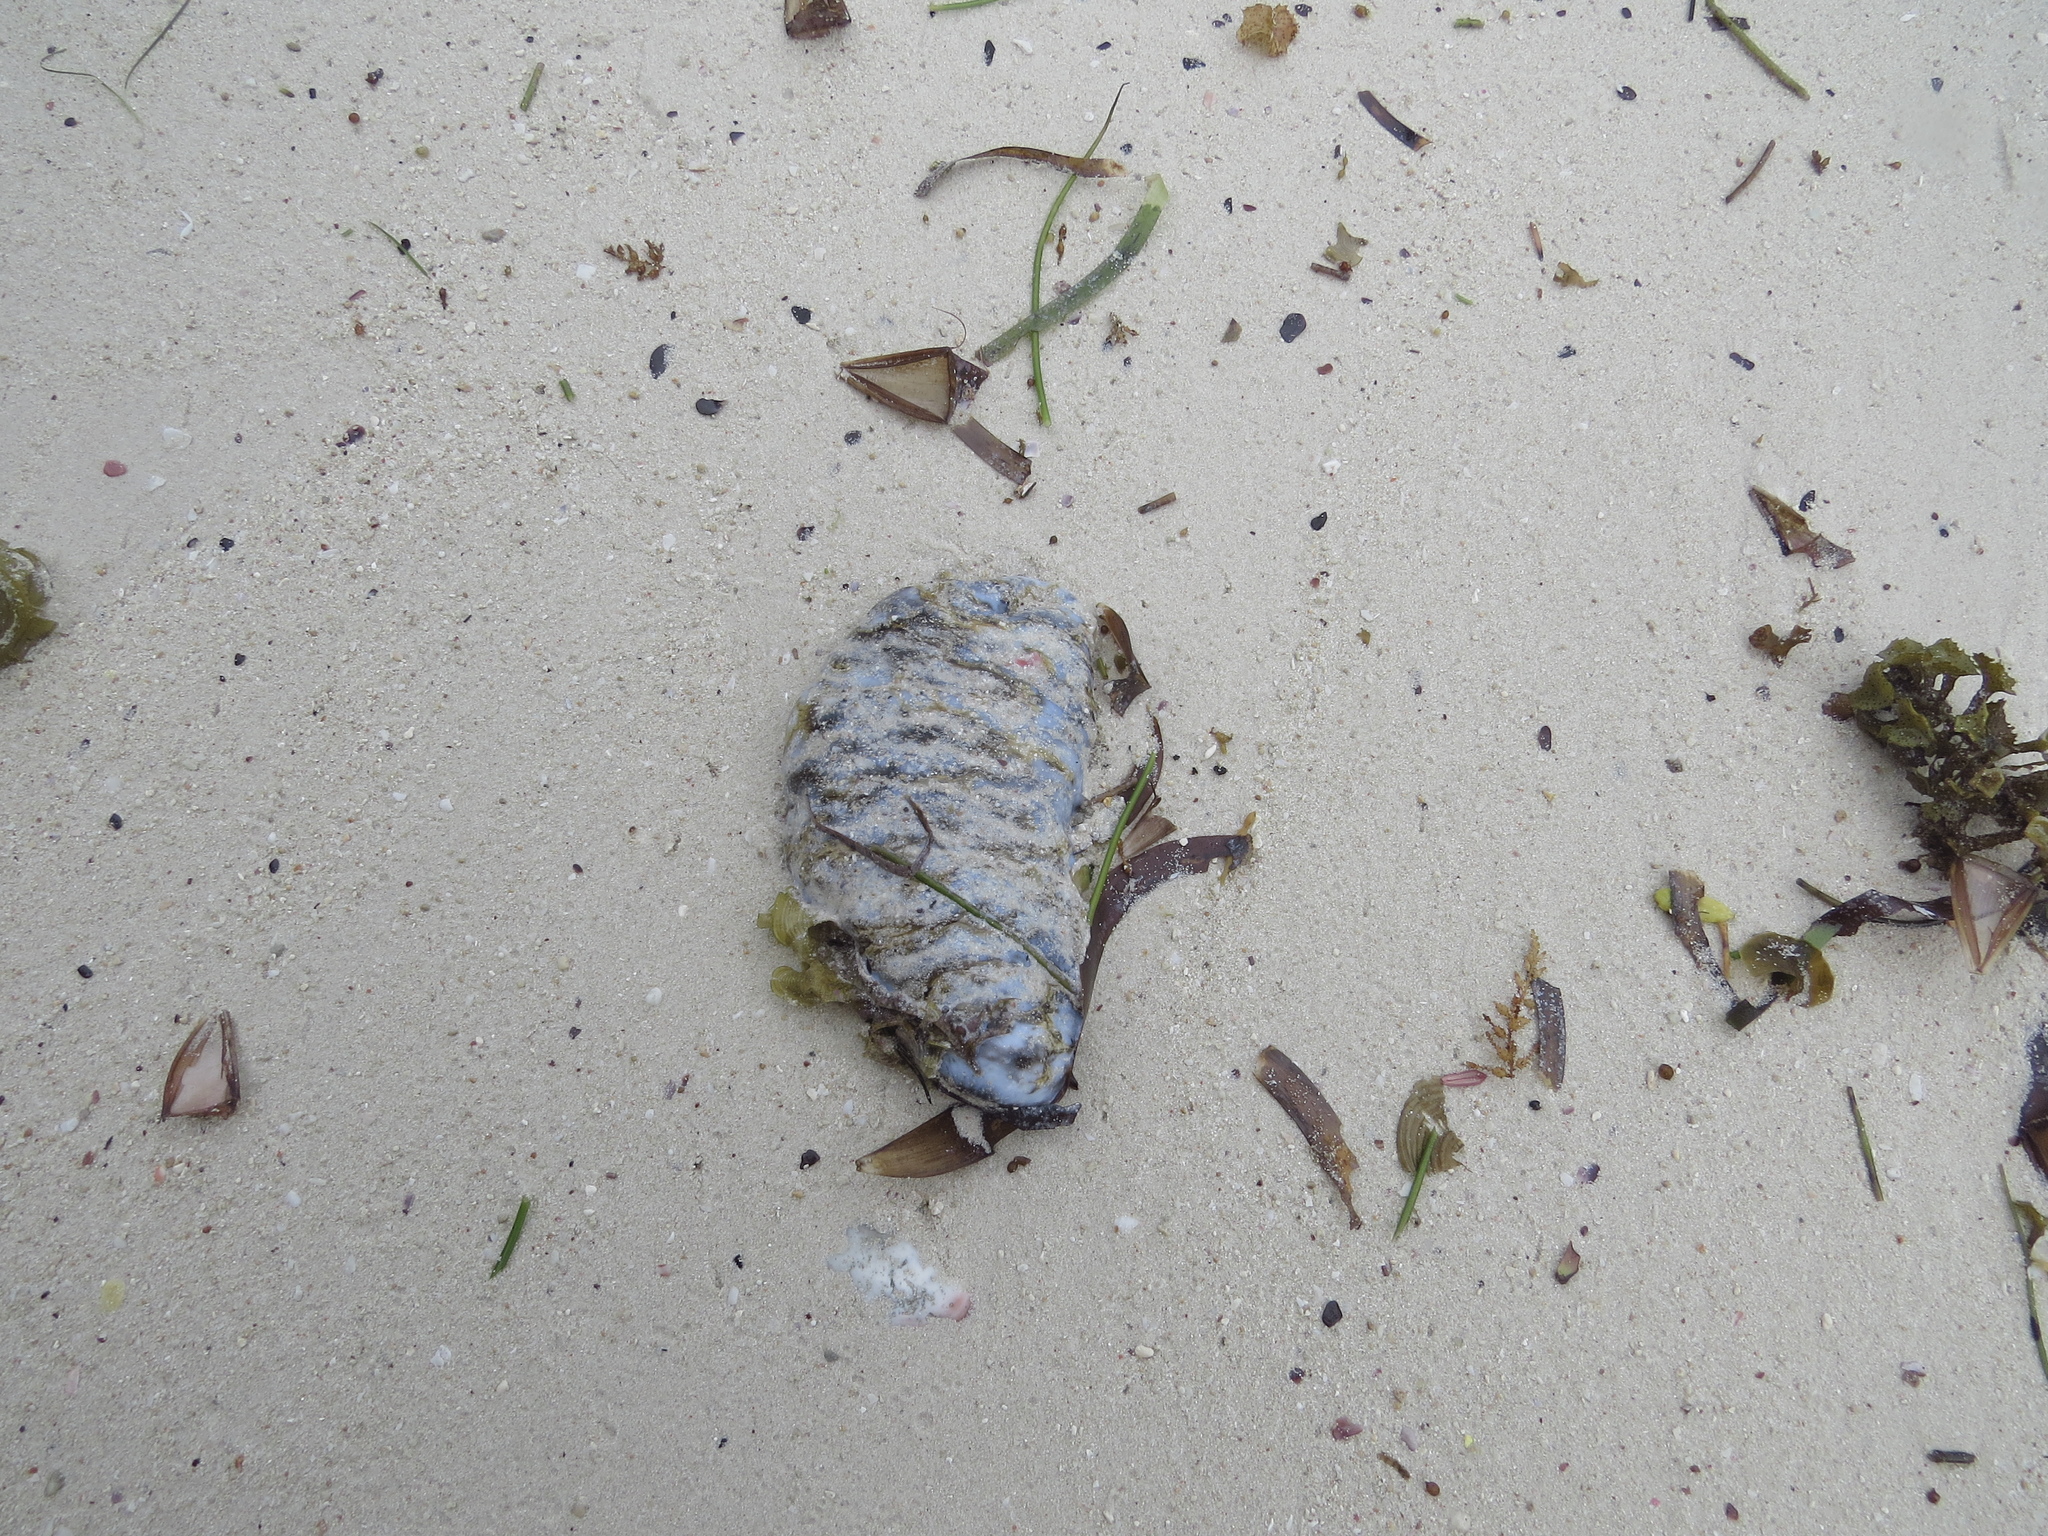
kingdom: Animalia
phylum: Echinodermata
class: Holothuroidea
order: Holothuriida
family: Holothuriidae
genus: Holothuria
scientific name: Holothuria scabra
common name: Golden sandfish
